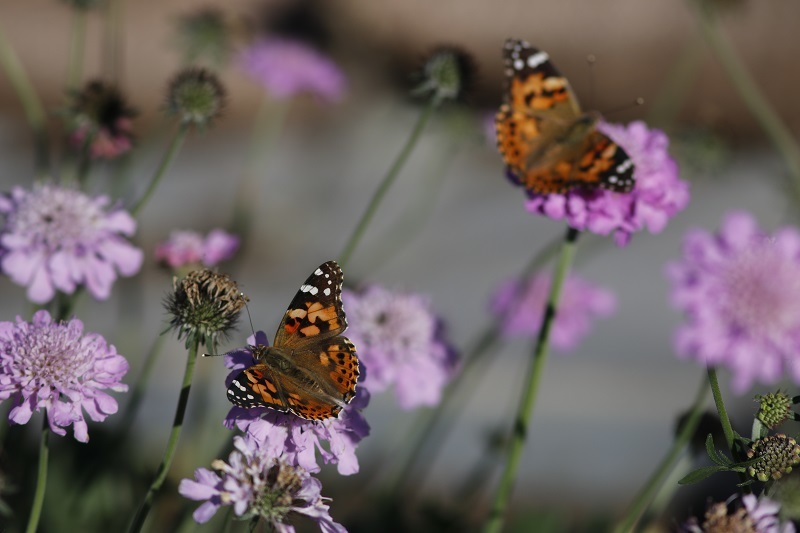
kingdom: Animalia
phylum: Arthropoda
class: Insecta
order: Lepidoptera
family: Nymphalidae
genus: Vanessa
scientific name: Vanessa cardui
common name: Painted lady
